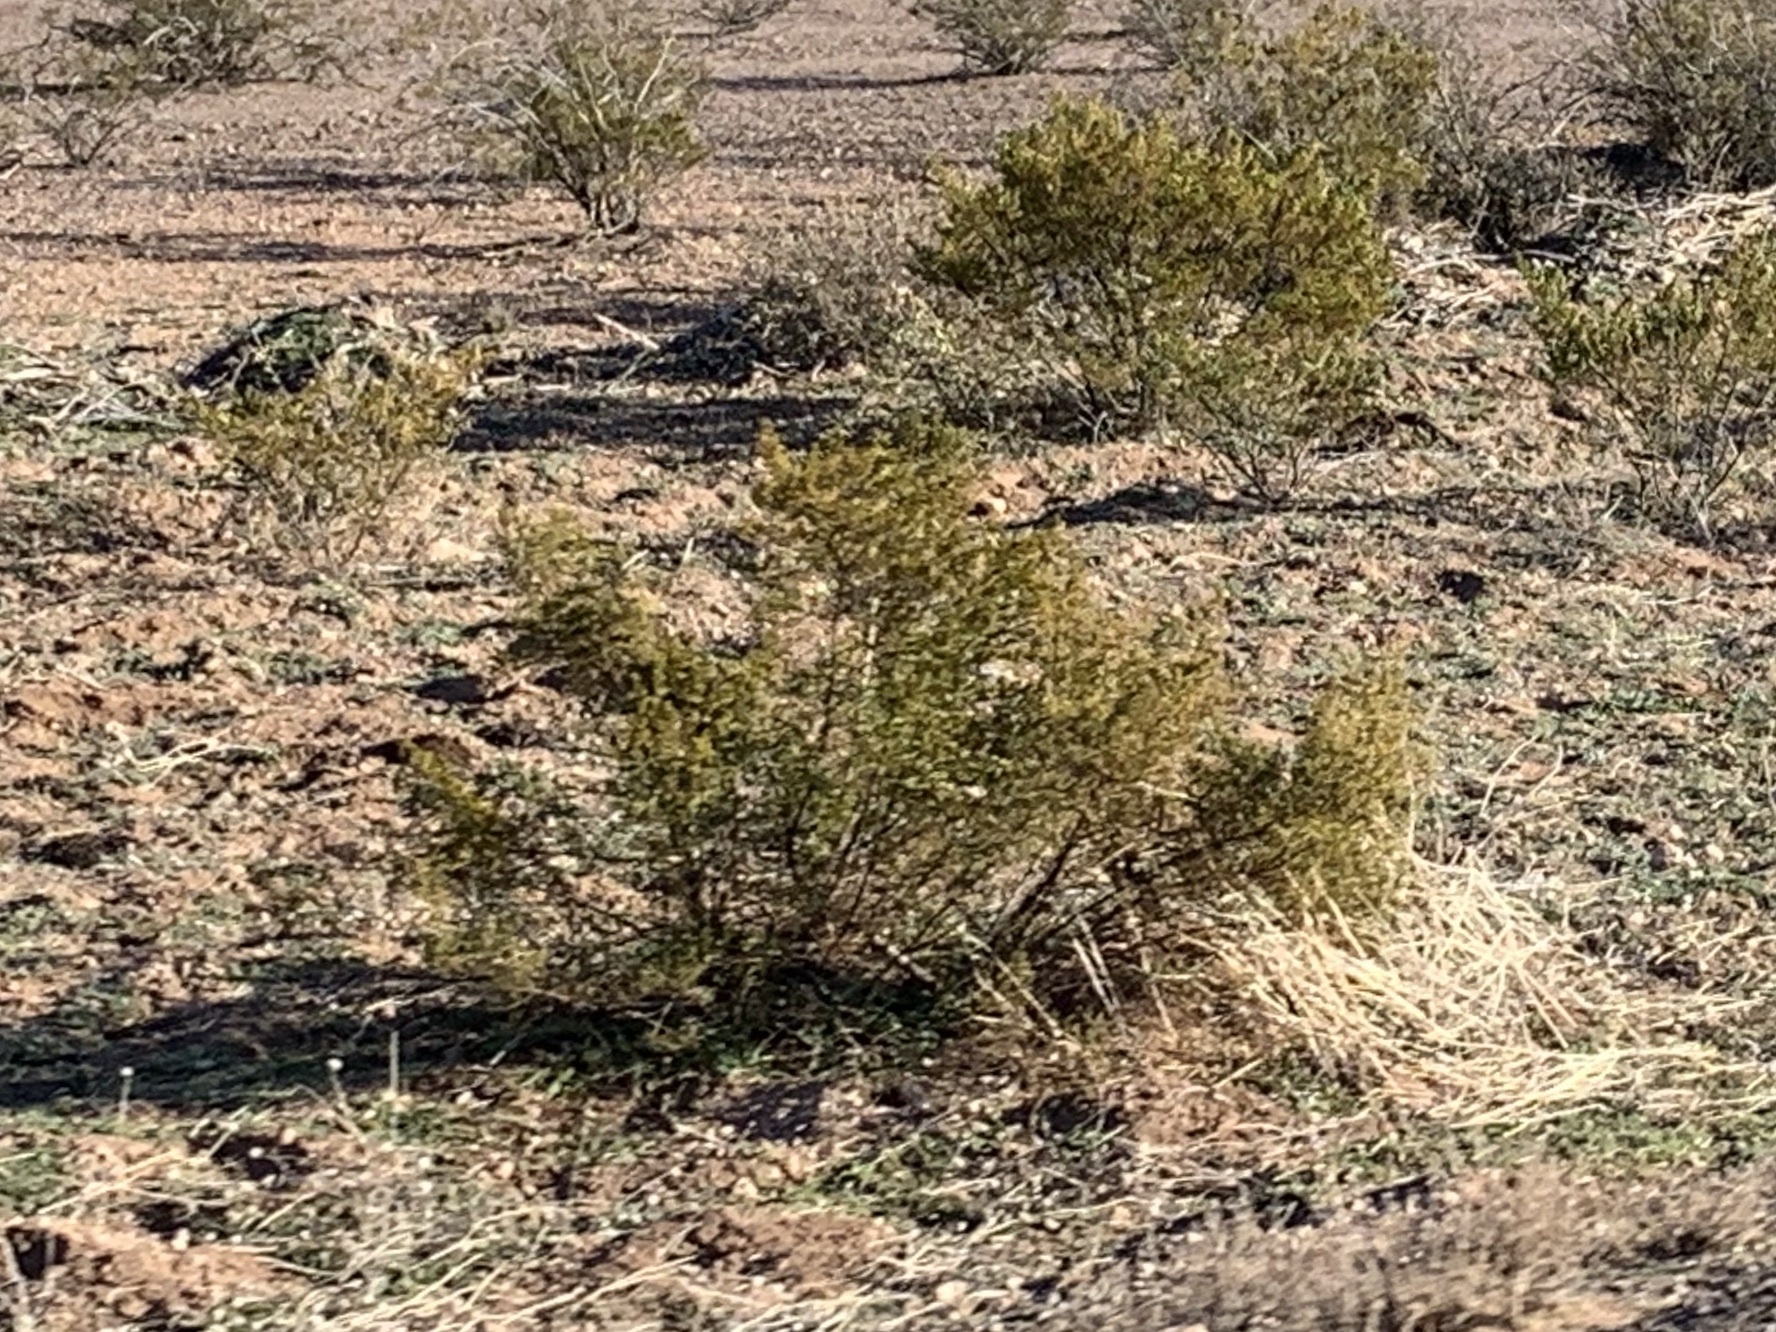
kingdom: Plantae
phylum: Tracheophyta
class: Magnoliopsida
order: Zygophyllales
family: Zygophyllaceae
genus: Larrea
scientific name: Larrea tridentata
